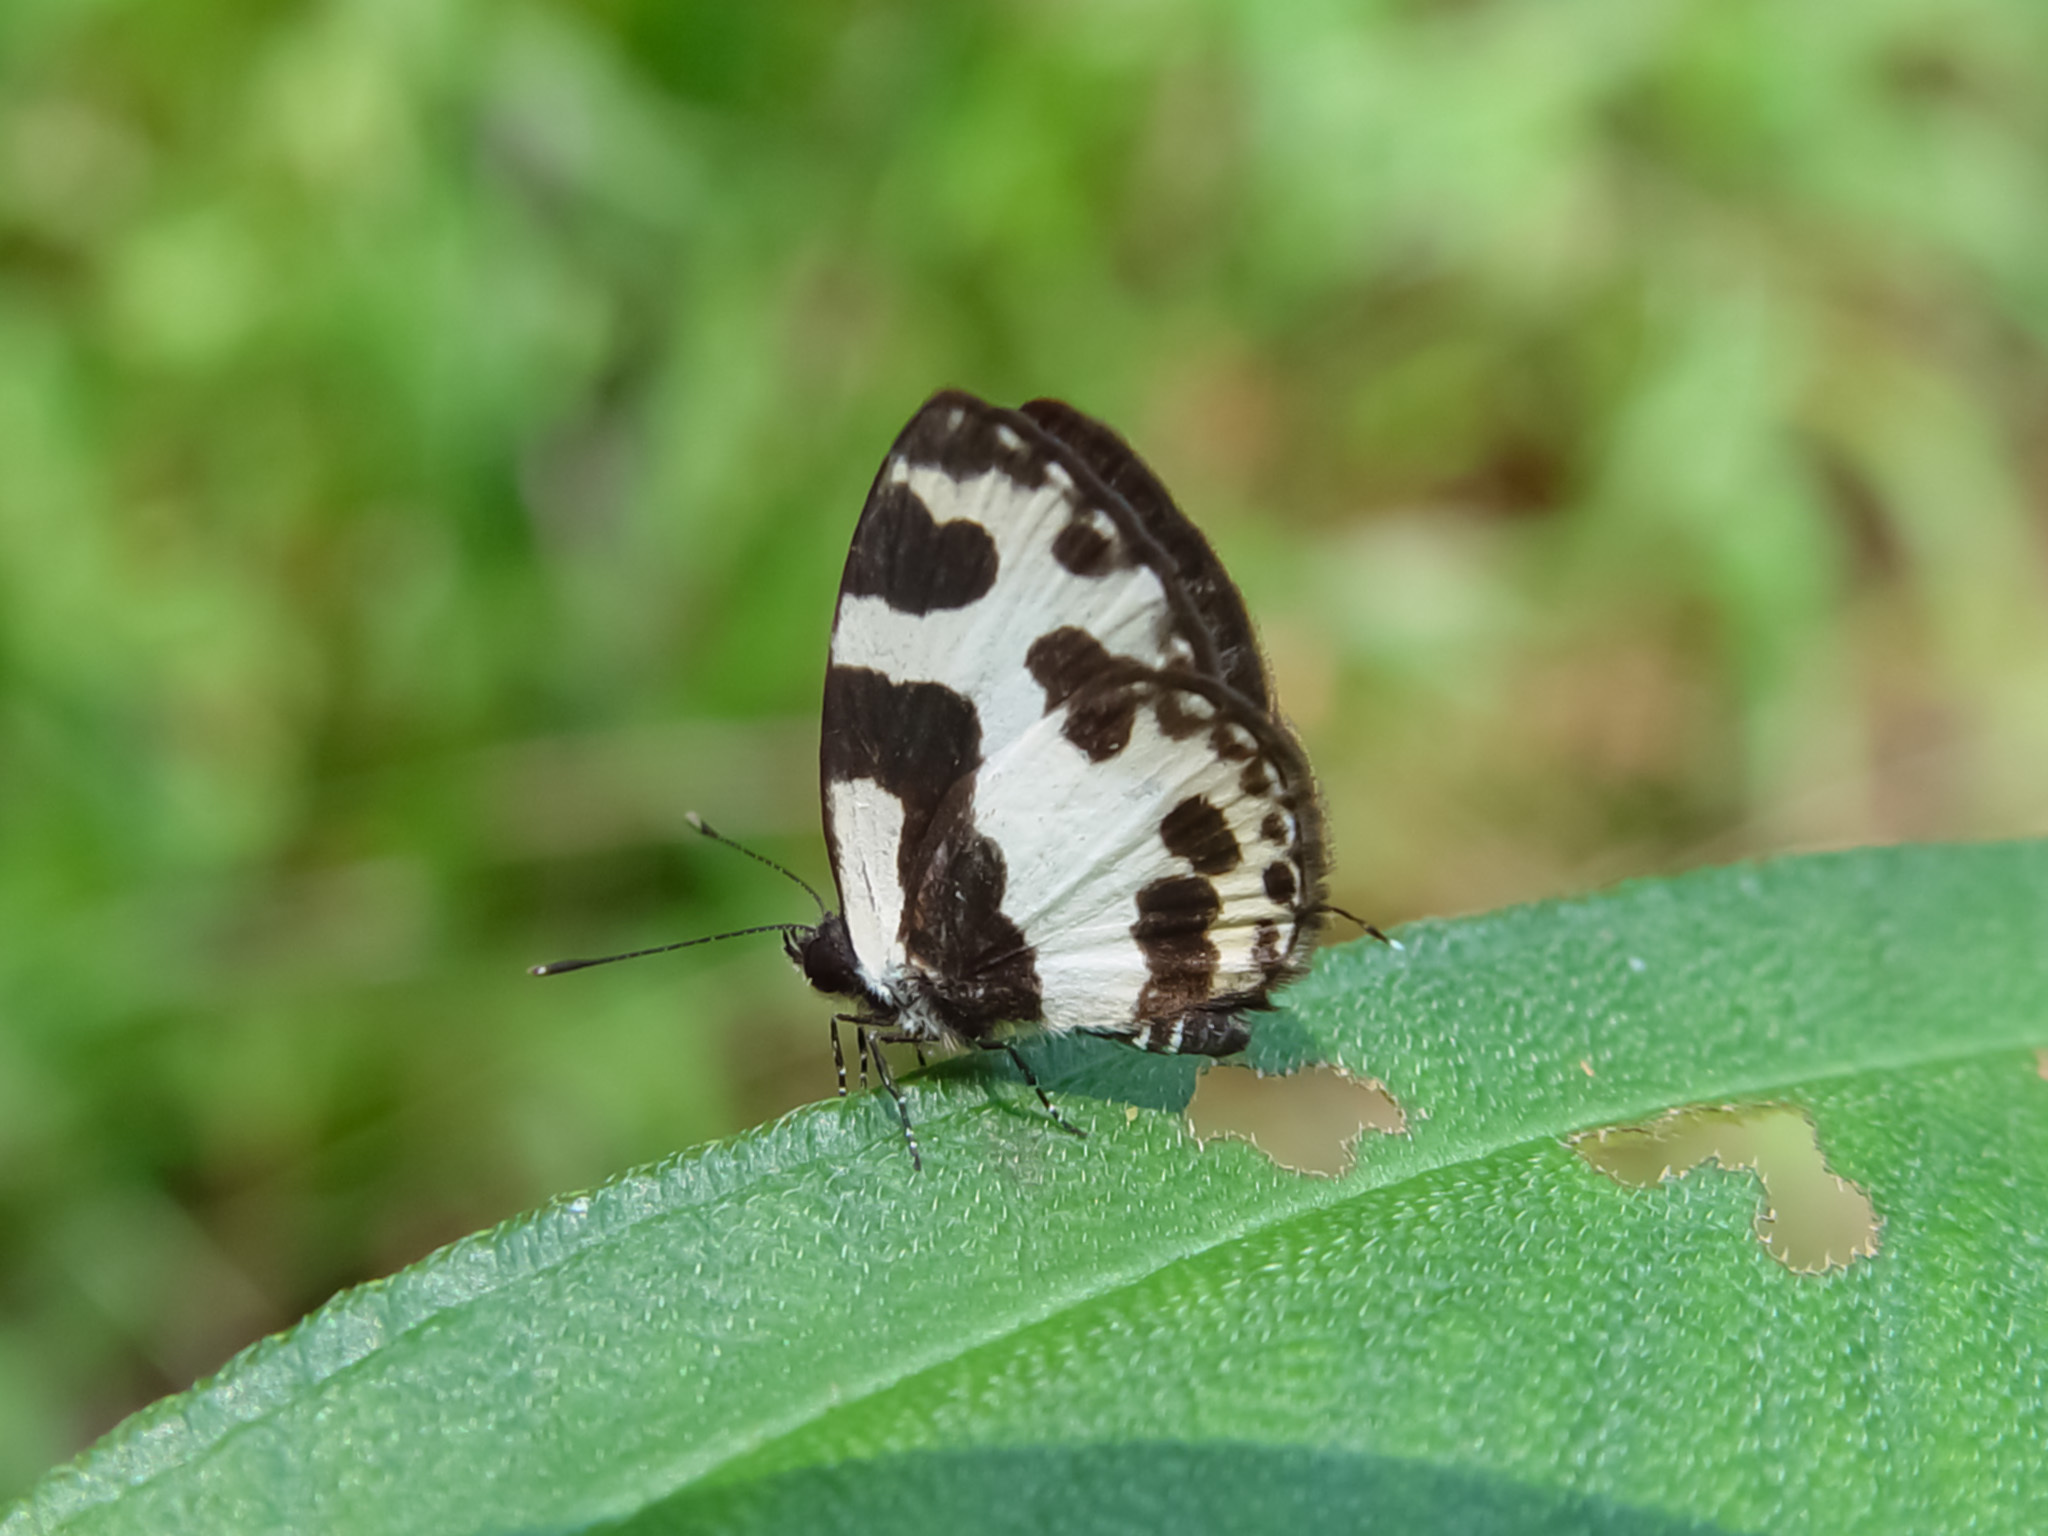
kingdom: Animalia
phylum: Arthropoda
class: Insecta
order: Lepidoptera
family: Lycaenidae
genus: Caleta
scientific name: Caleta elna
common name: Elbowed pierrot
